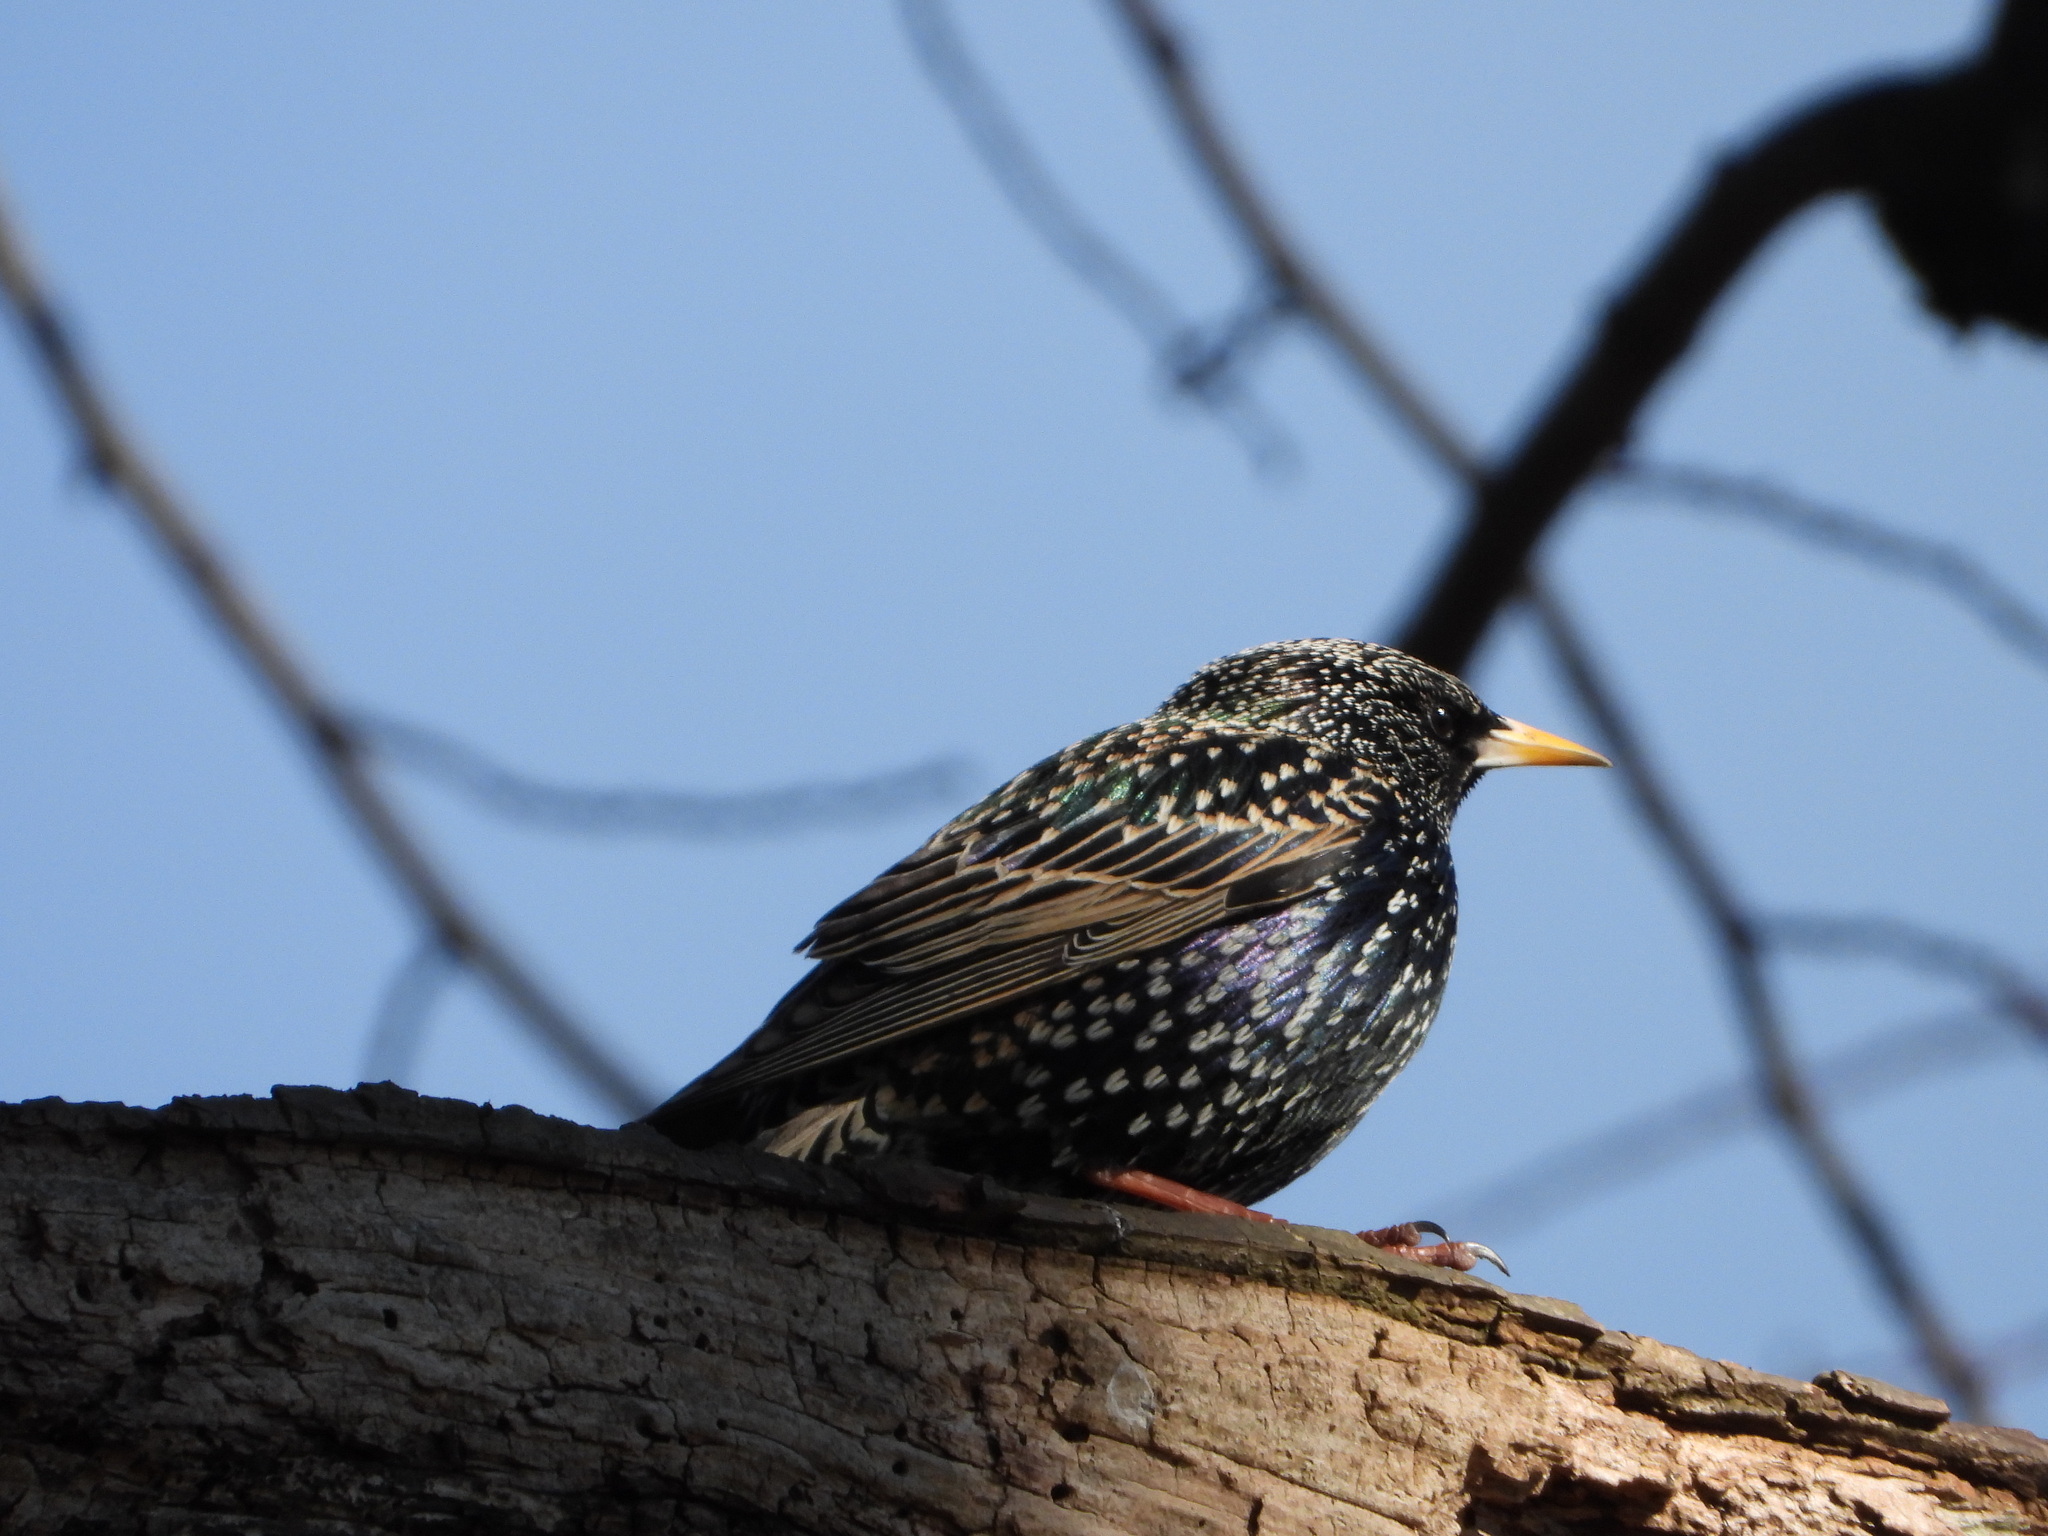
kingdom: Animalia
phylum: Chordata
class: Aves
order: Passeriformes
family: Sturnidae
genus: Sturnus
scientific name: Sturnus vulgaris
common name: Common starling
